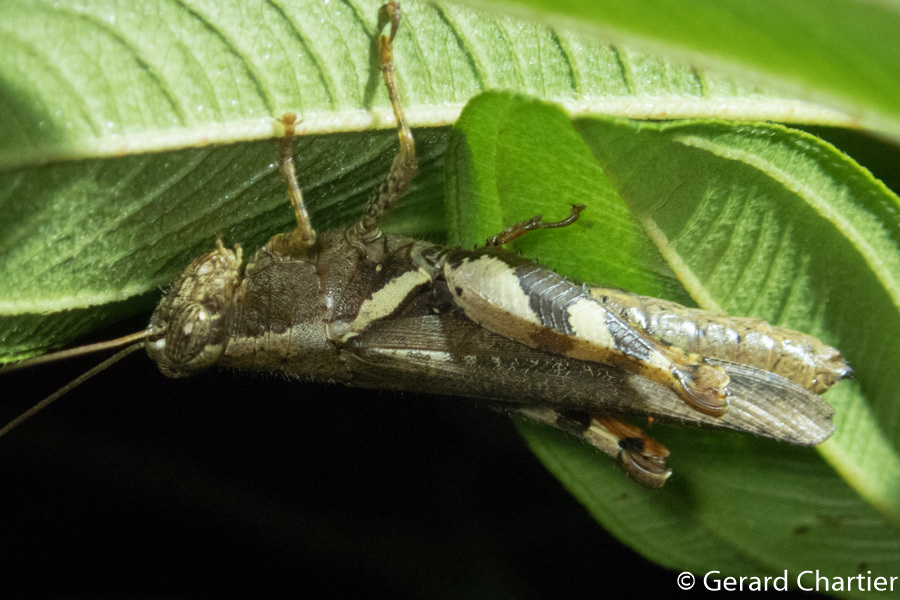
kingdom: Animalia
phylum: Arthropoda
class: Insecta
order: Orthoptera
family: Acrididae
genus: Xenocatantops
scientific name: Xenocatantops humile
